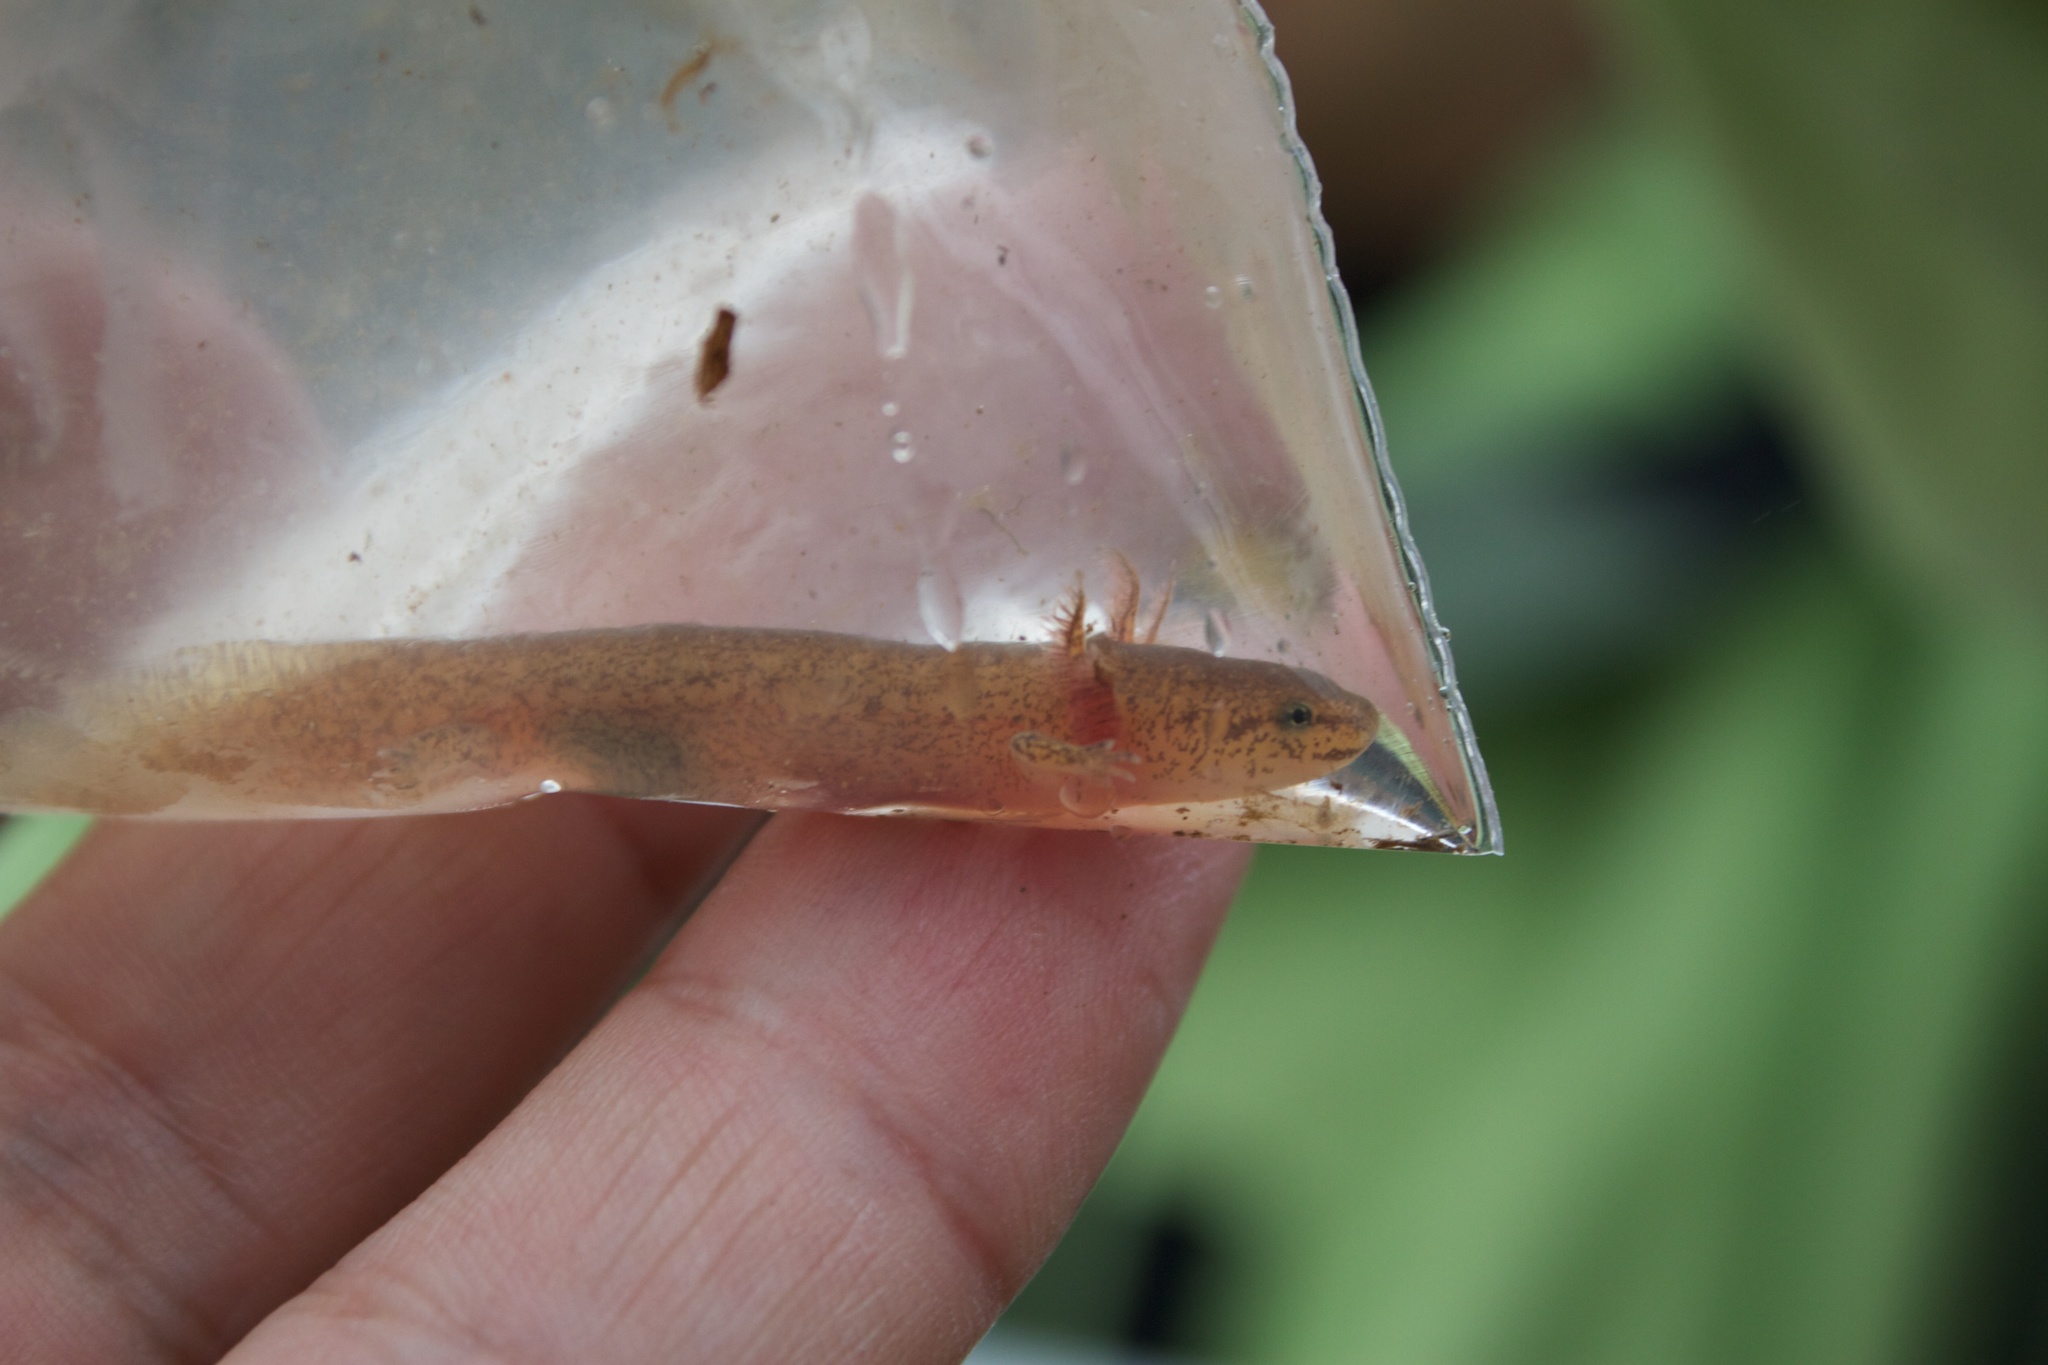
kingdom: Animalia
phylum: Chordata
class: Amphibia
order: Caudata
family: Plethodontidae
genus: Pseudotriton
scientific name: Pseudotriton ruber
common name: Red salamander
